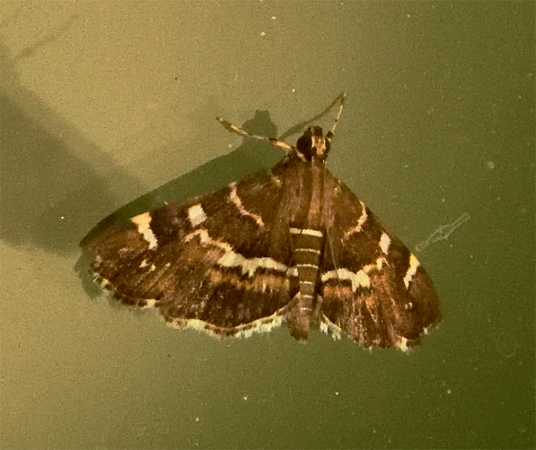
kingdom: Animalia
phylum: Arthropoda
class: Insecta
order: Lepidoptera
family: Crambidae
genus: Hymenia
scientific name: Hymenia perspectalis
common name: Spotted beet webworm
